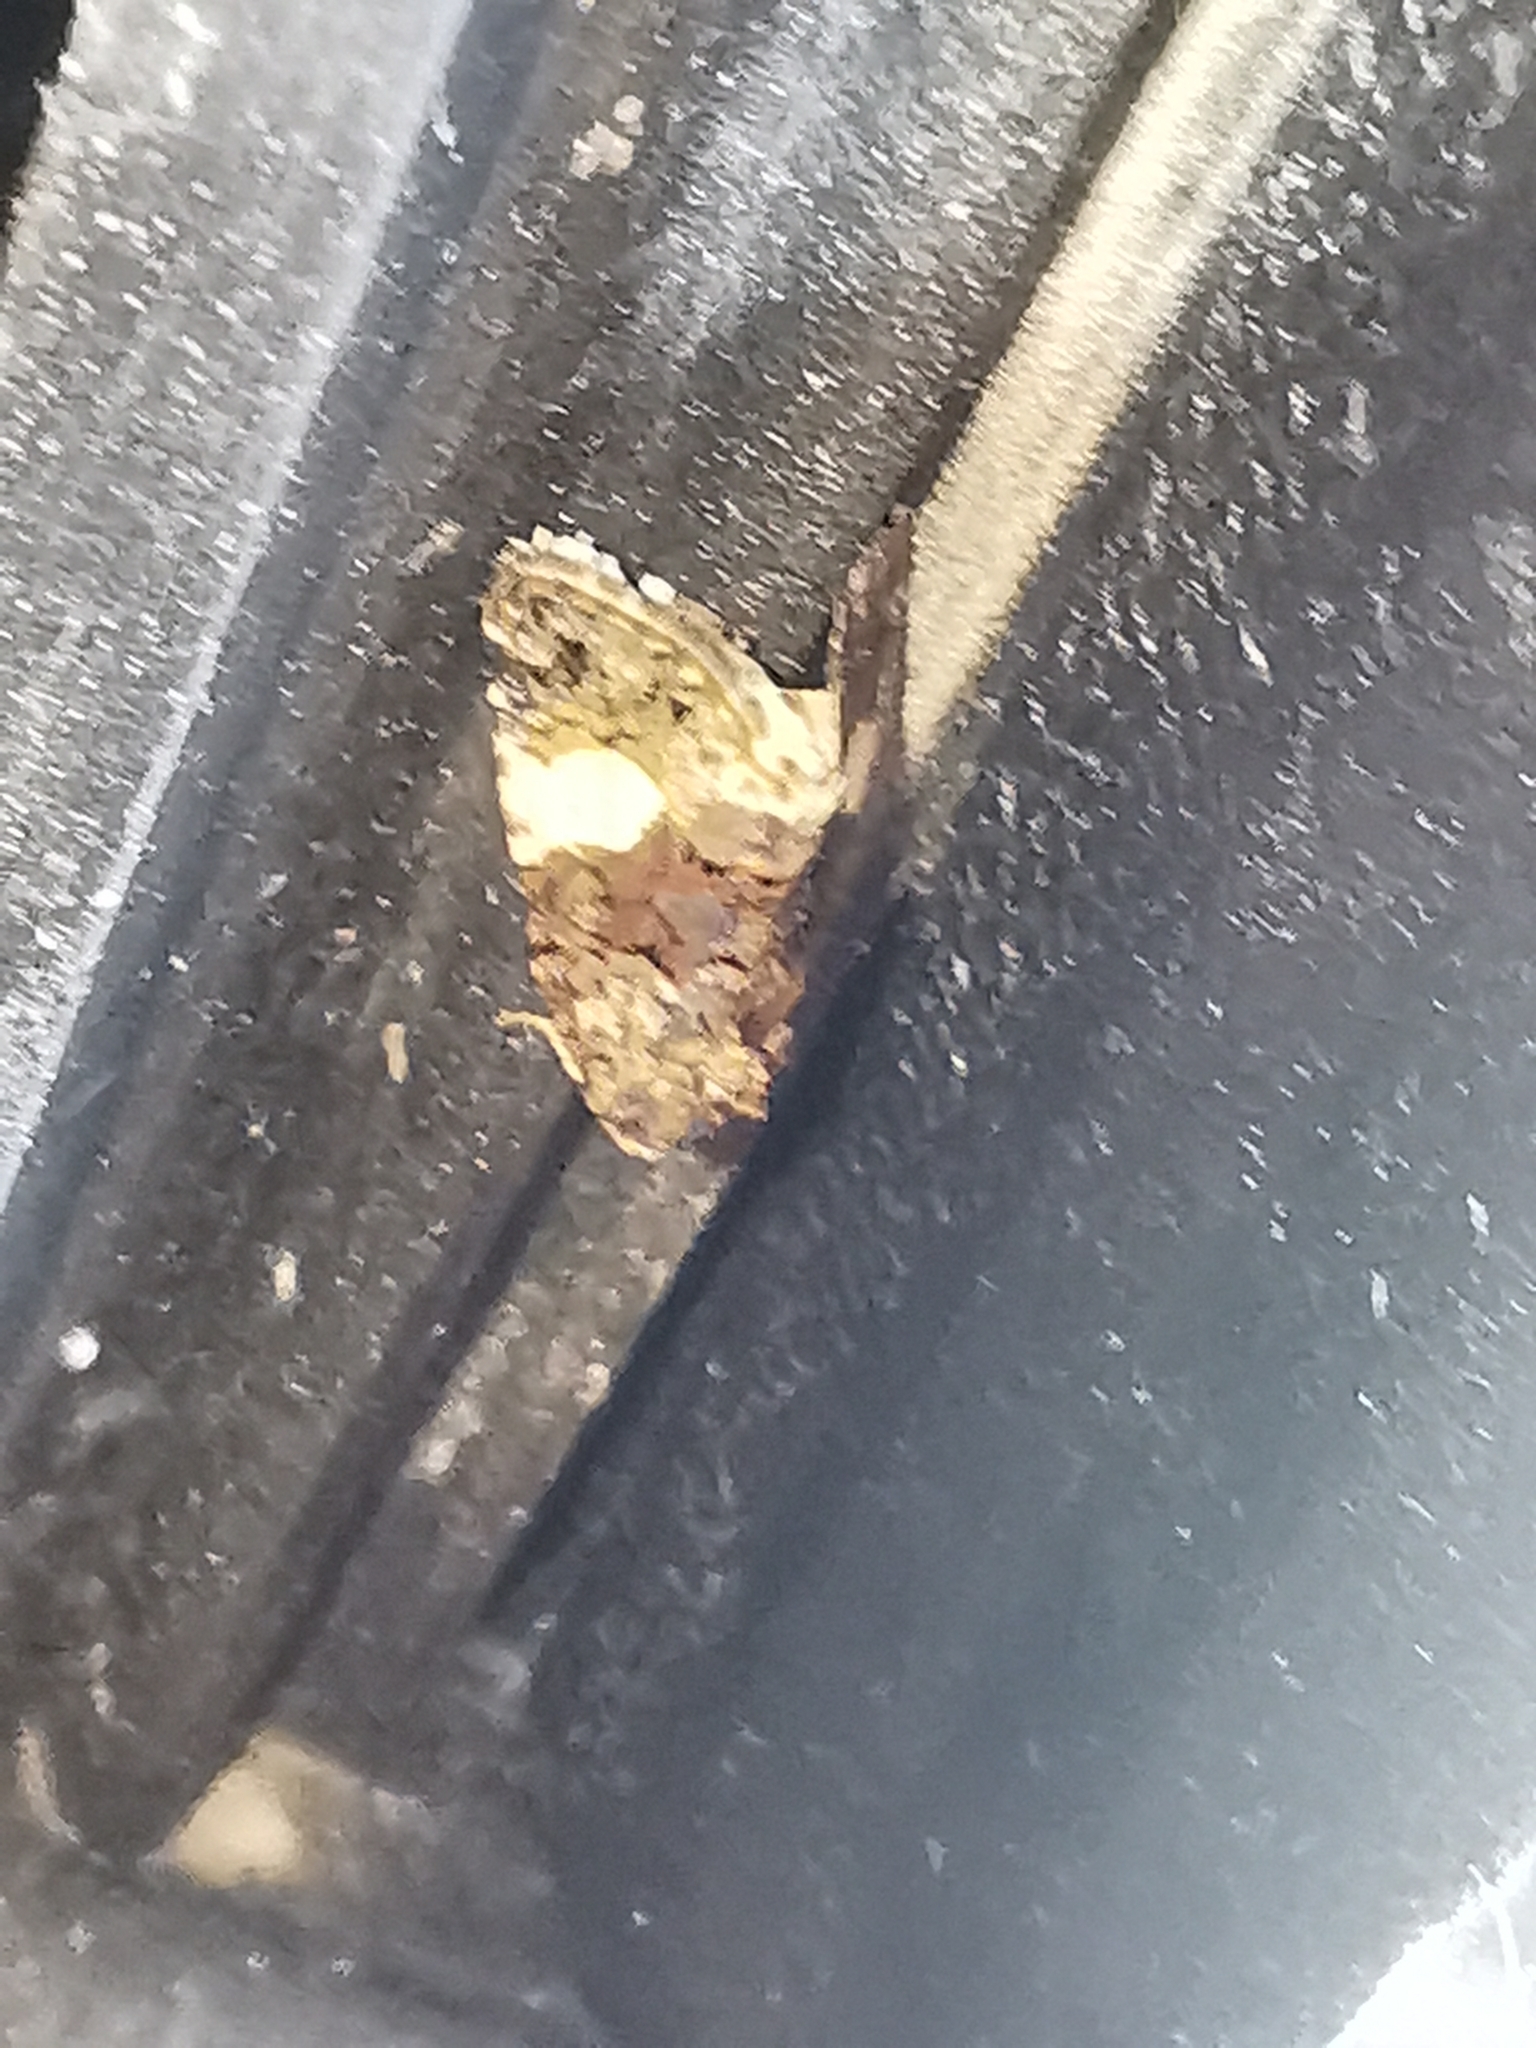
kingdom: Animalia
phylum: Arthropoda
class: Insecta
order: Lepidoptera
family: Erebidae
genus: Tyta
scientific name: Tyta luctuosa
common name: Four-spotted
